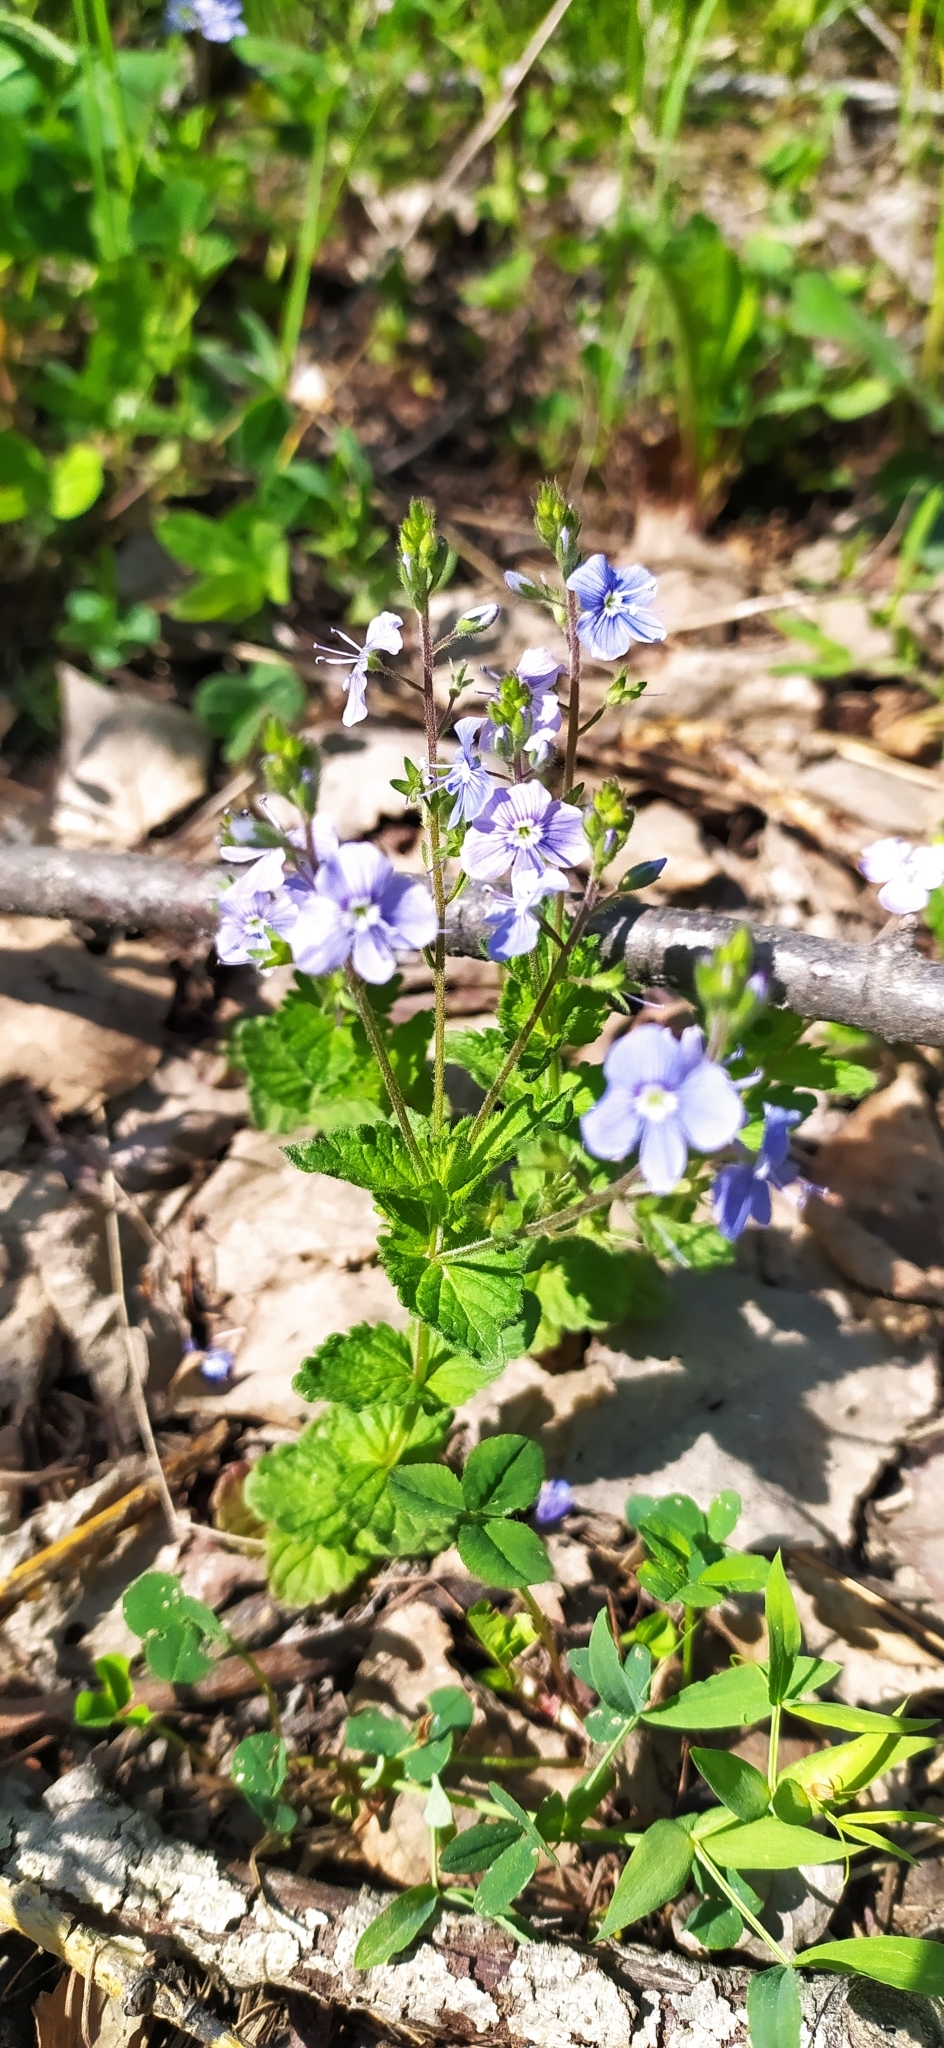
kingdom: Plantae
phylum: Tracheophyta
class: Magnoliopsida
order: Lamiales
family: Plantaginaceae
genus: Veronica
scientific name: Veronica chamaedrys
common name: Germander speedwell
